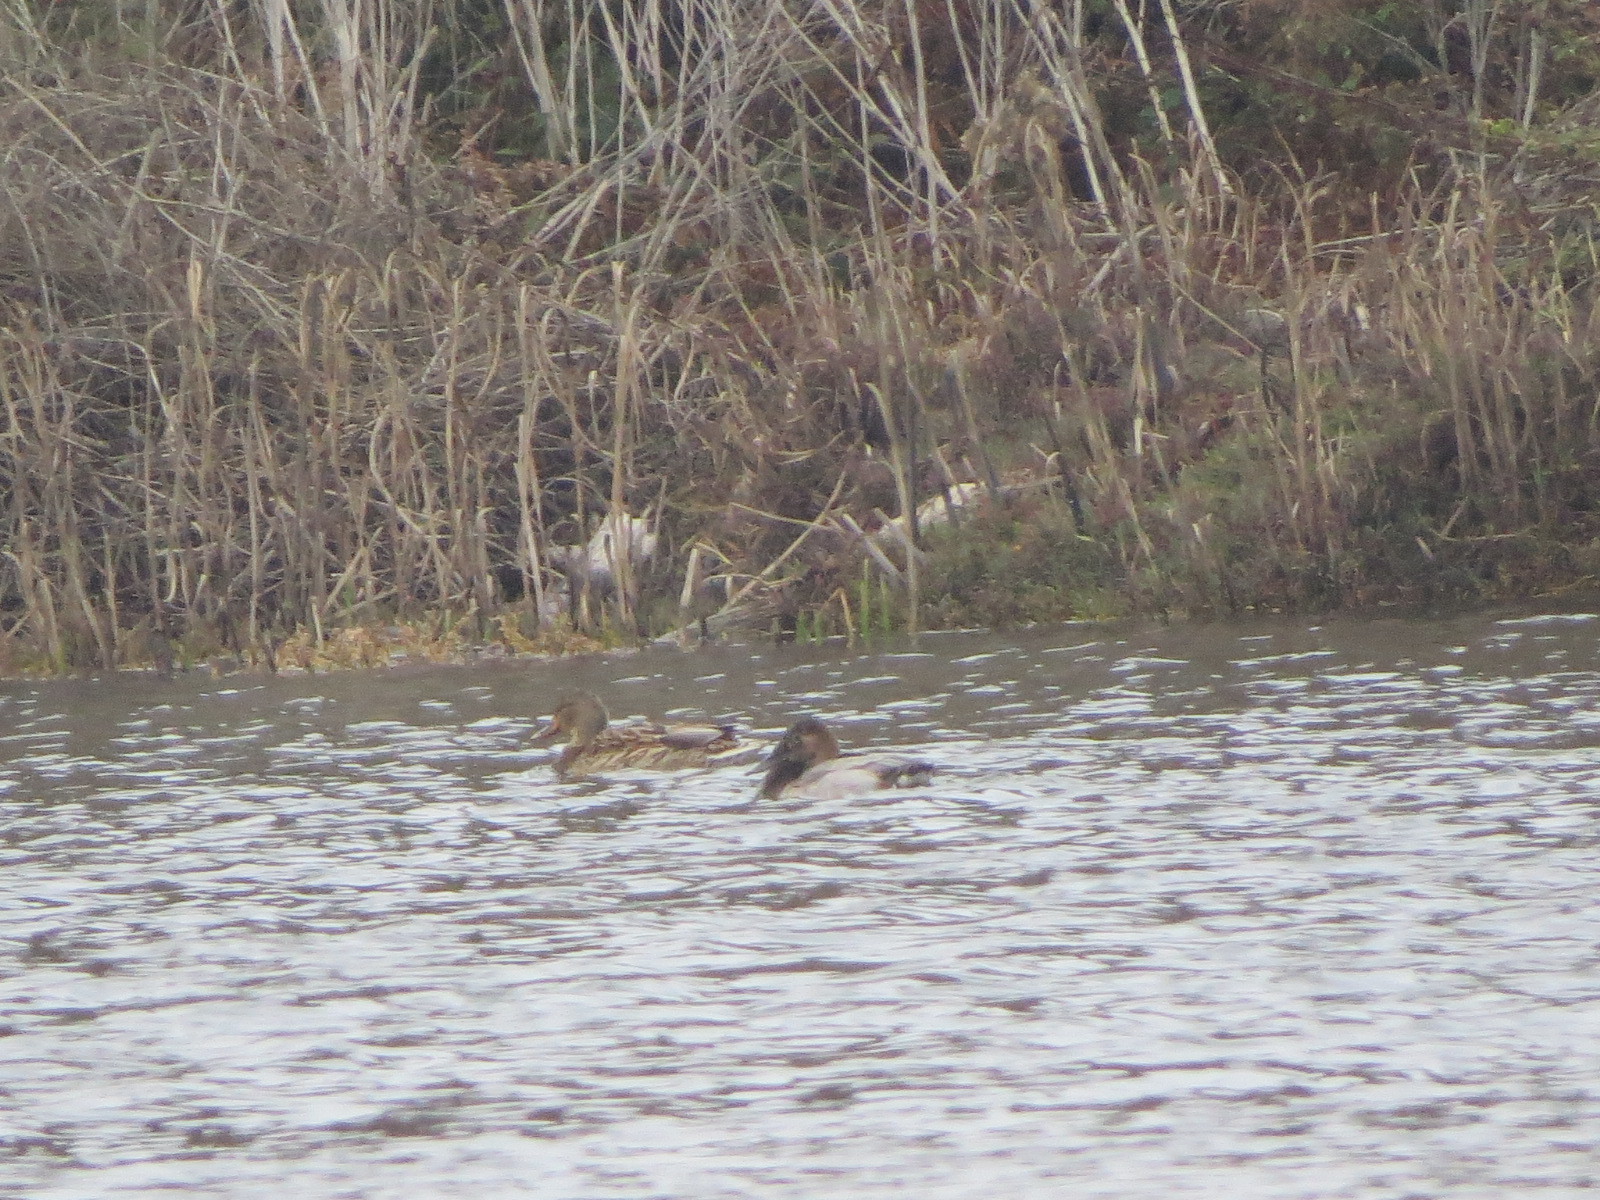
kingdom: Animalia
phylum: Chordata
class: Aves
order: Anseriformes
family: Anatidae
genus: Aythya
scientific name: Aythya valisineria
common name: Canvasback
